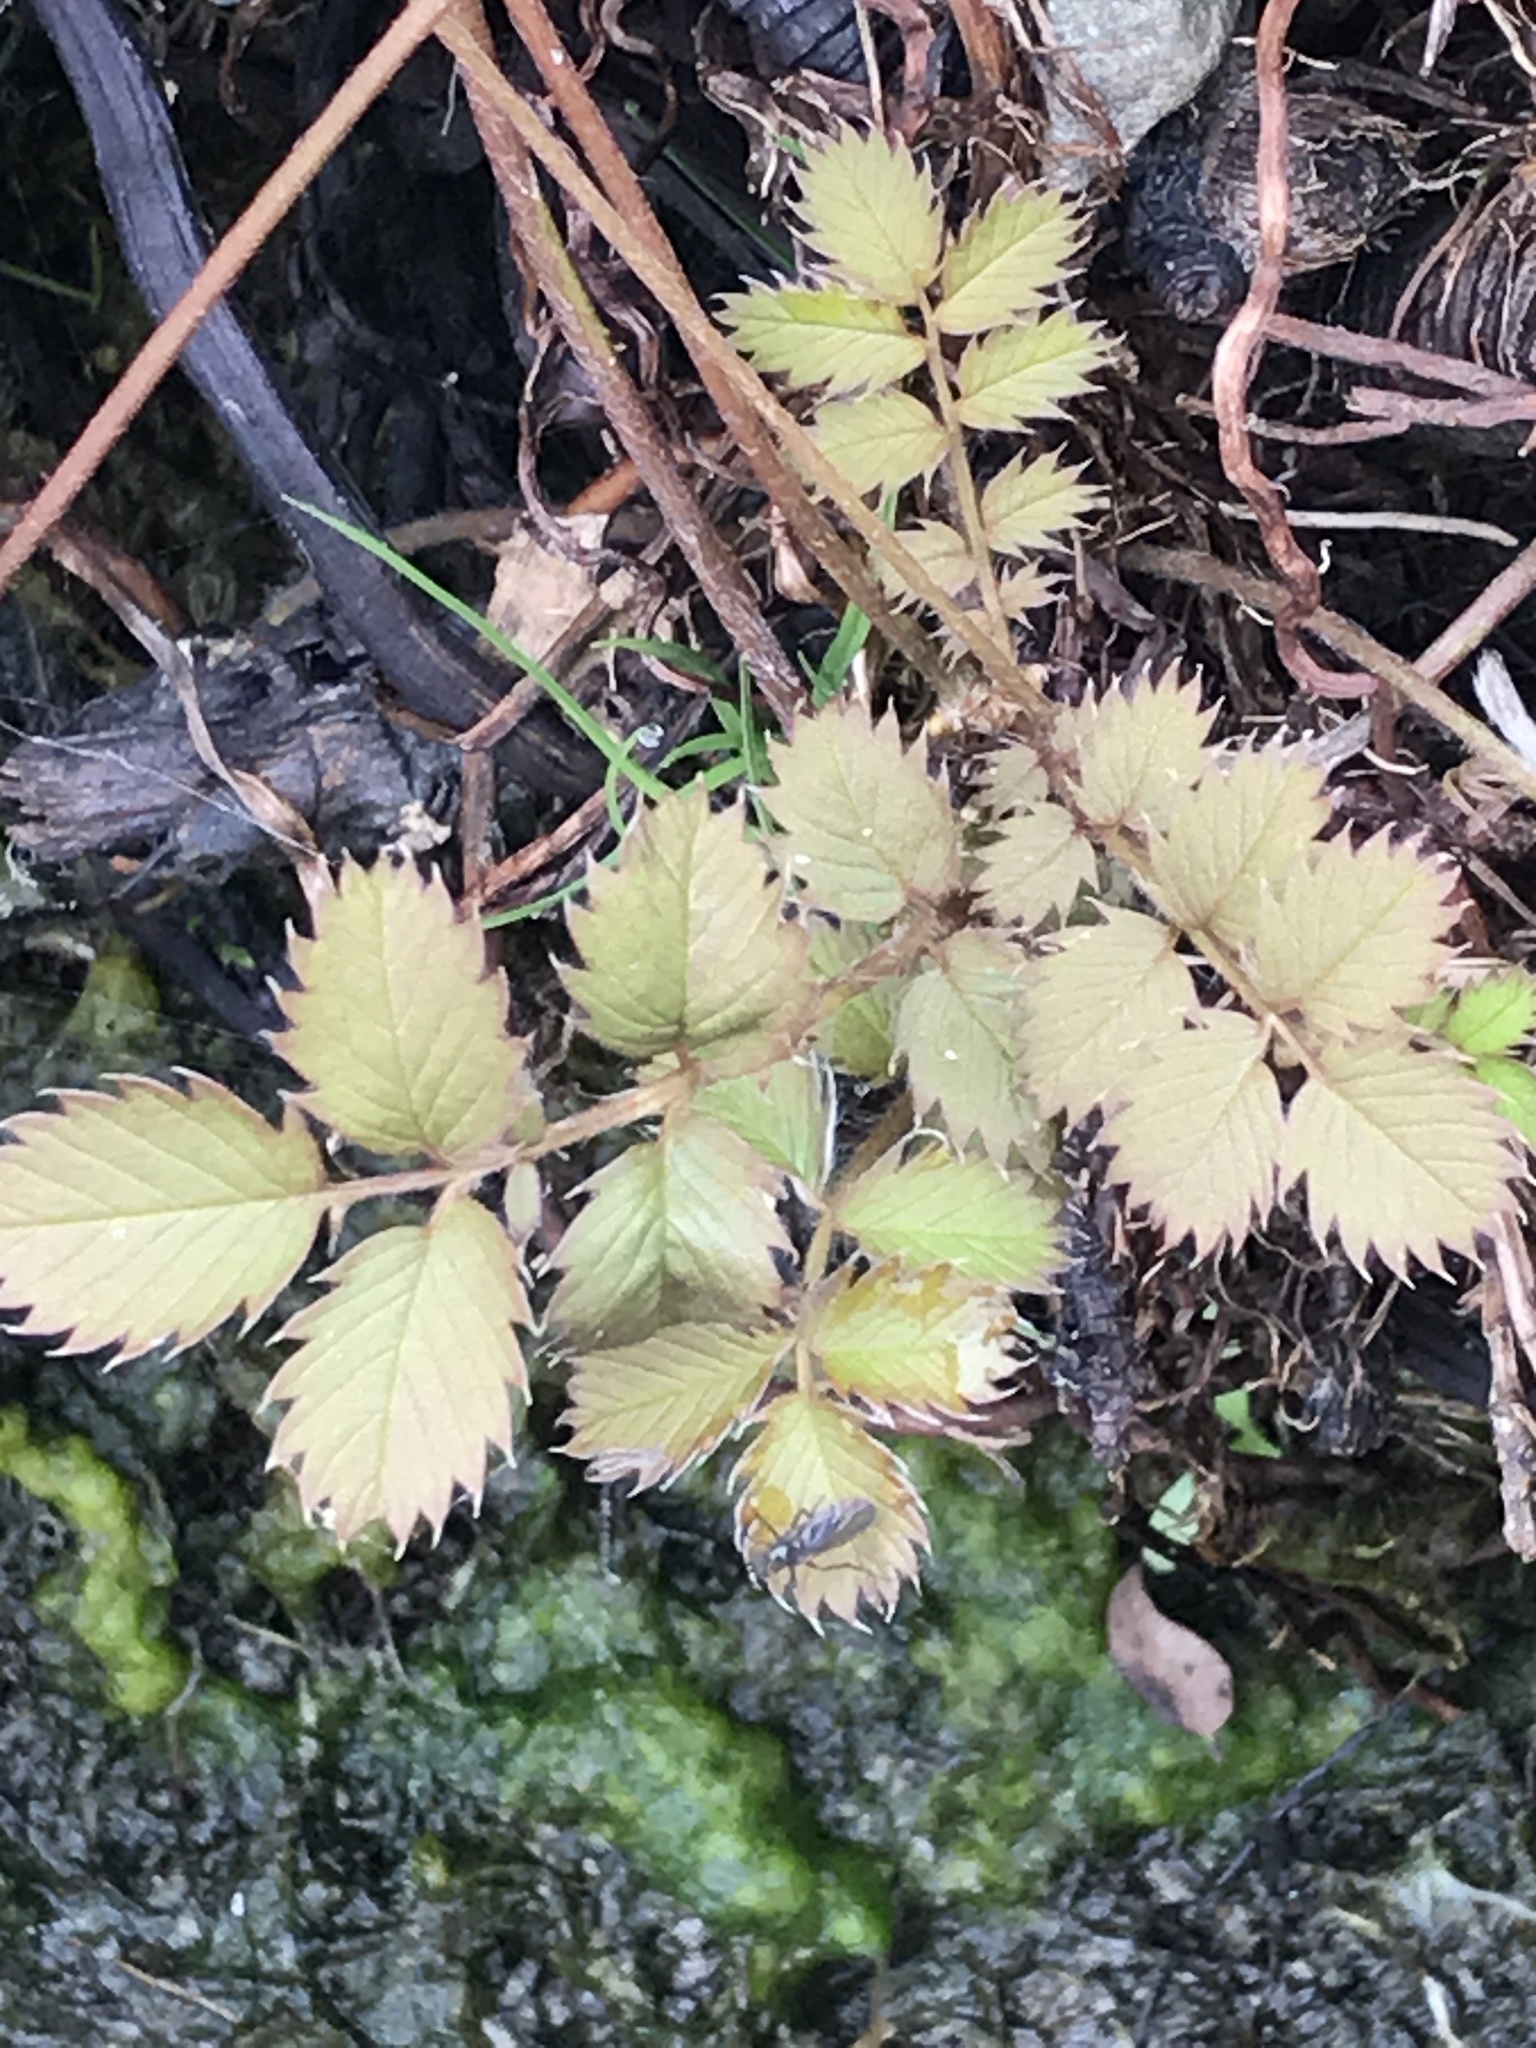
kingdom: Plantae
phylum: Tracheophyta
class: Magnoliopsida
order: Rosales
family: Rosaceae
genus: Argentina
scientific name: Argentina anserinoides
